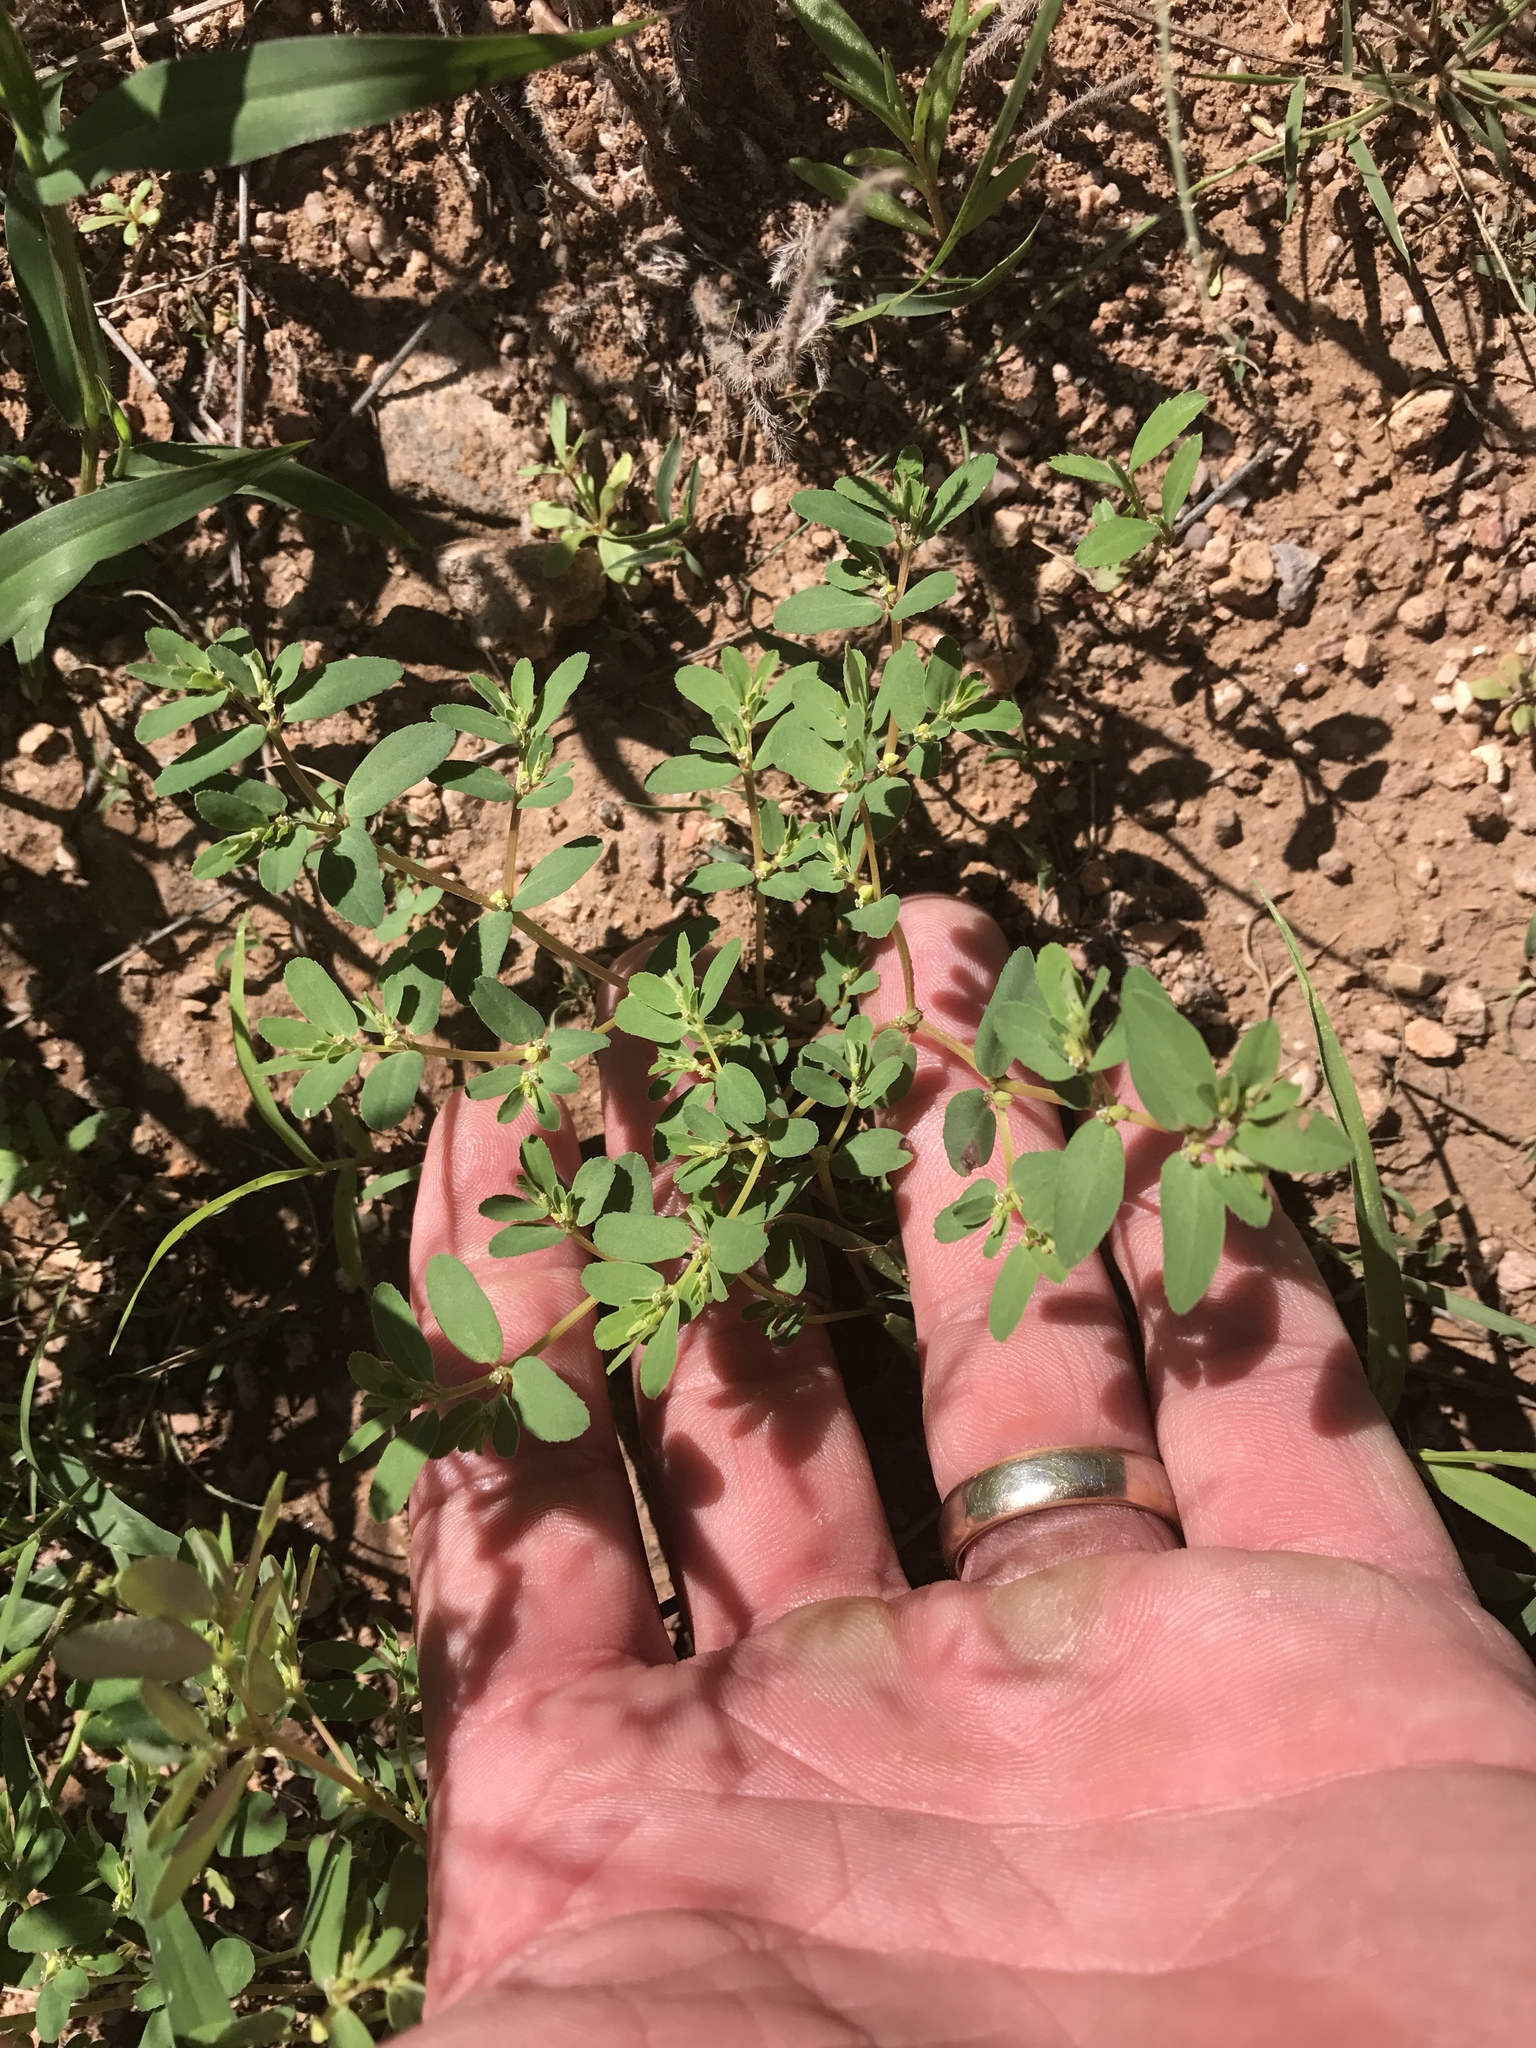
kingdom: Plantae
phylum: Tracheophyta
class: Magnoliopsida
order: Malpighiales
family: Euphorbiaceae
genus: Euphorbia
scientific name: Euphorbia serpillifolia
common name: Thyme-leaf spurge
